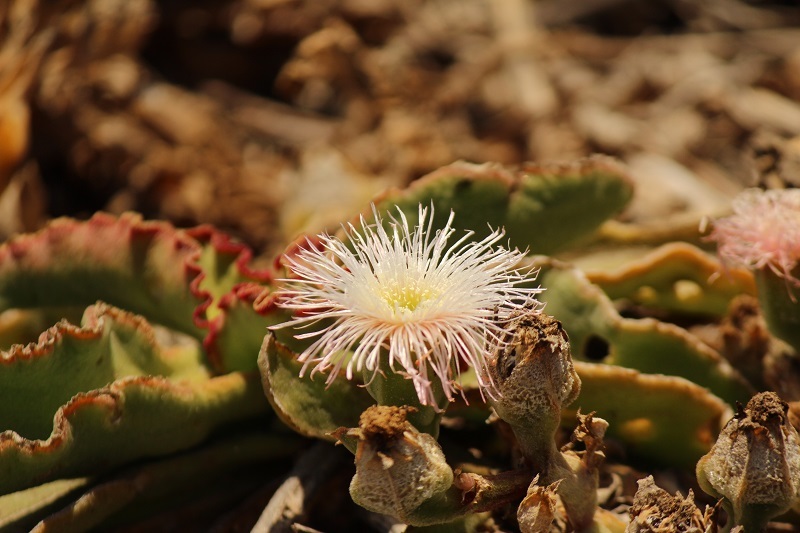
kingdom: Plantae
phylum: Tracheophyta
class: Magnoliopsida
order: Caryophyllales
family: Aizoaceae
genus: Mesembryanthemum
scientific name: Mesembryanthemum guerichianum
